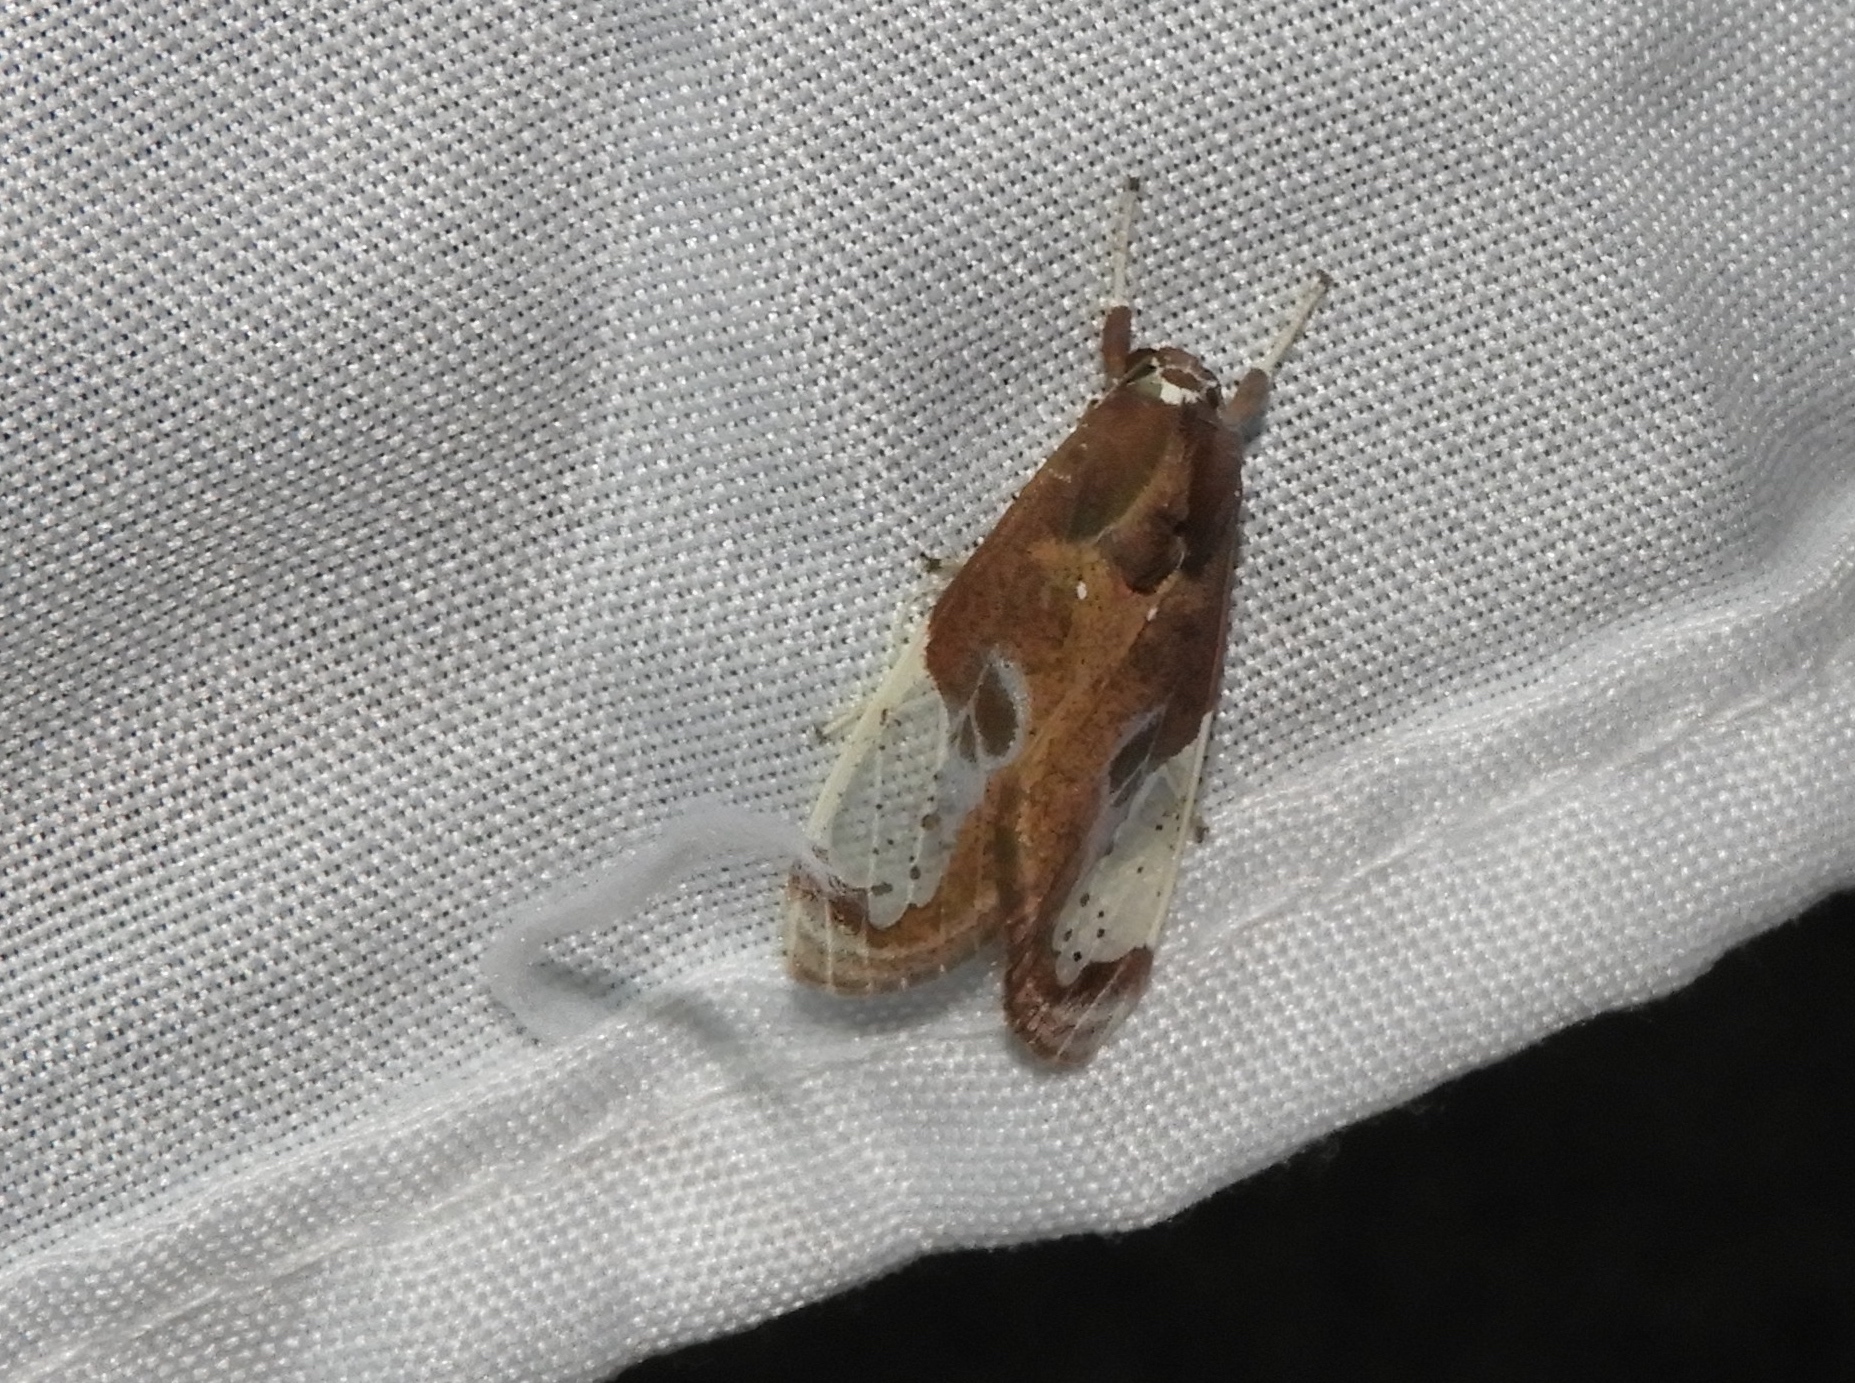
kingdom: Animalia
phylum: Arthropoda
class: Insecta
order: Lepidoptera
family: Erebidae
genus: Bertholdia
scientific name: Bertholdia albipuncta
